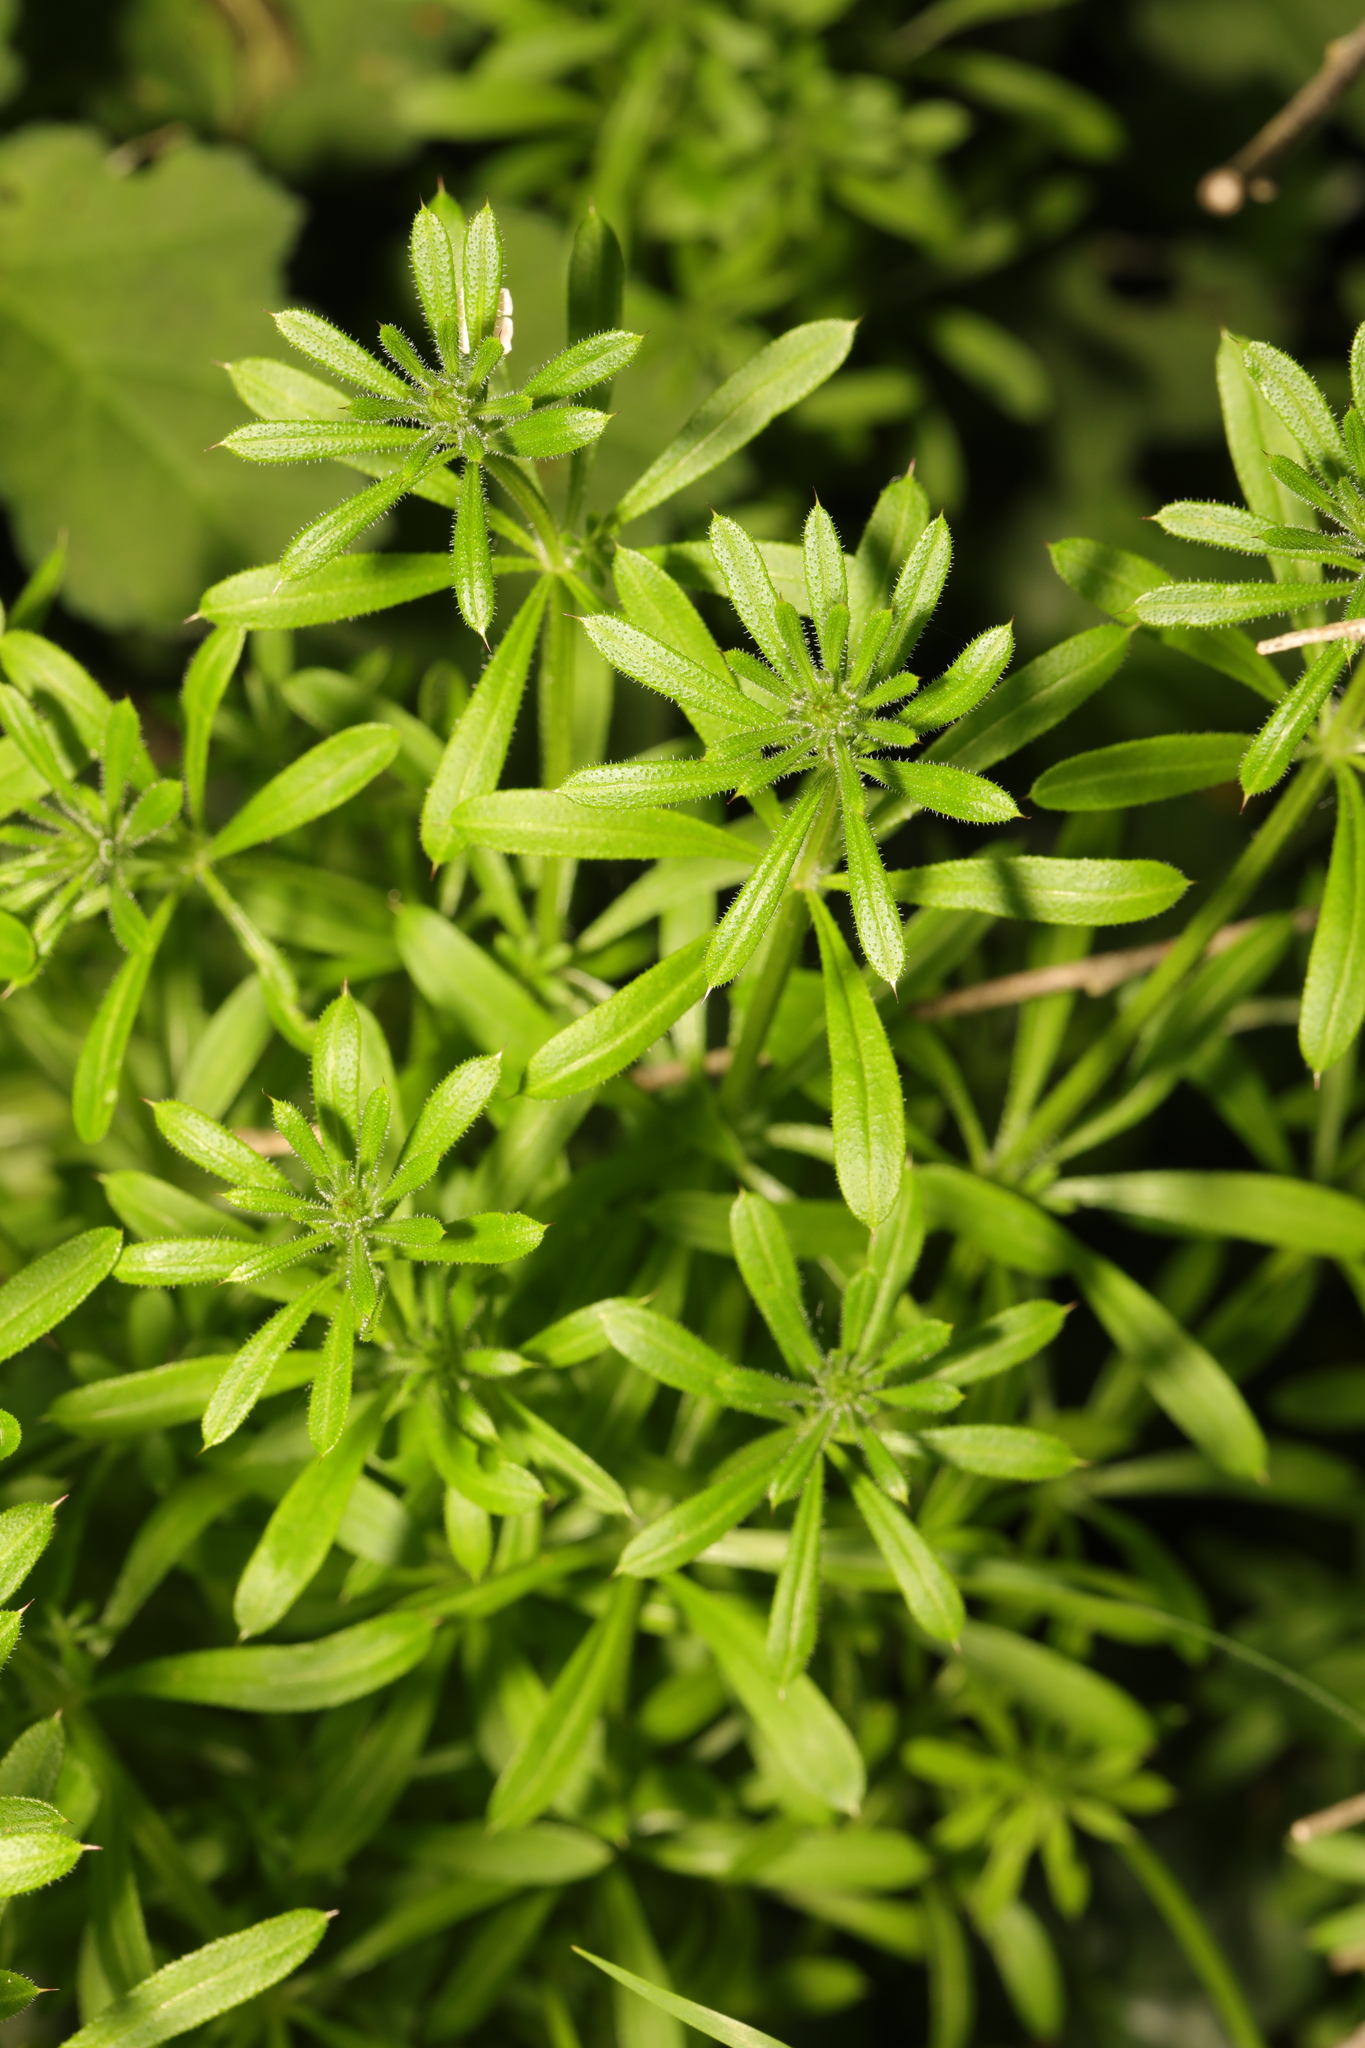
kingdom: Plantae
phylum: Tracheophyta
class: Magnoliopsida
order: Gentianales
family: Rubiaceae
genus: Galium
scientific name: Galium aparine
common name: Cleavers
